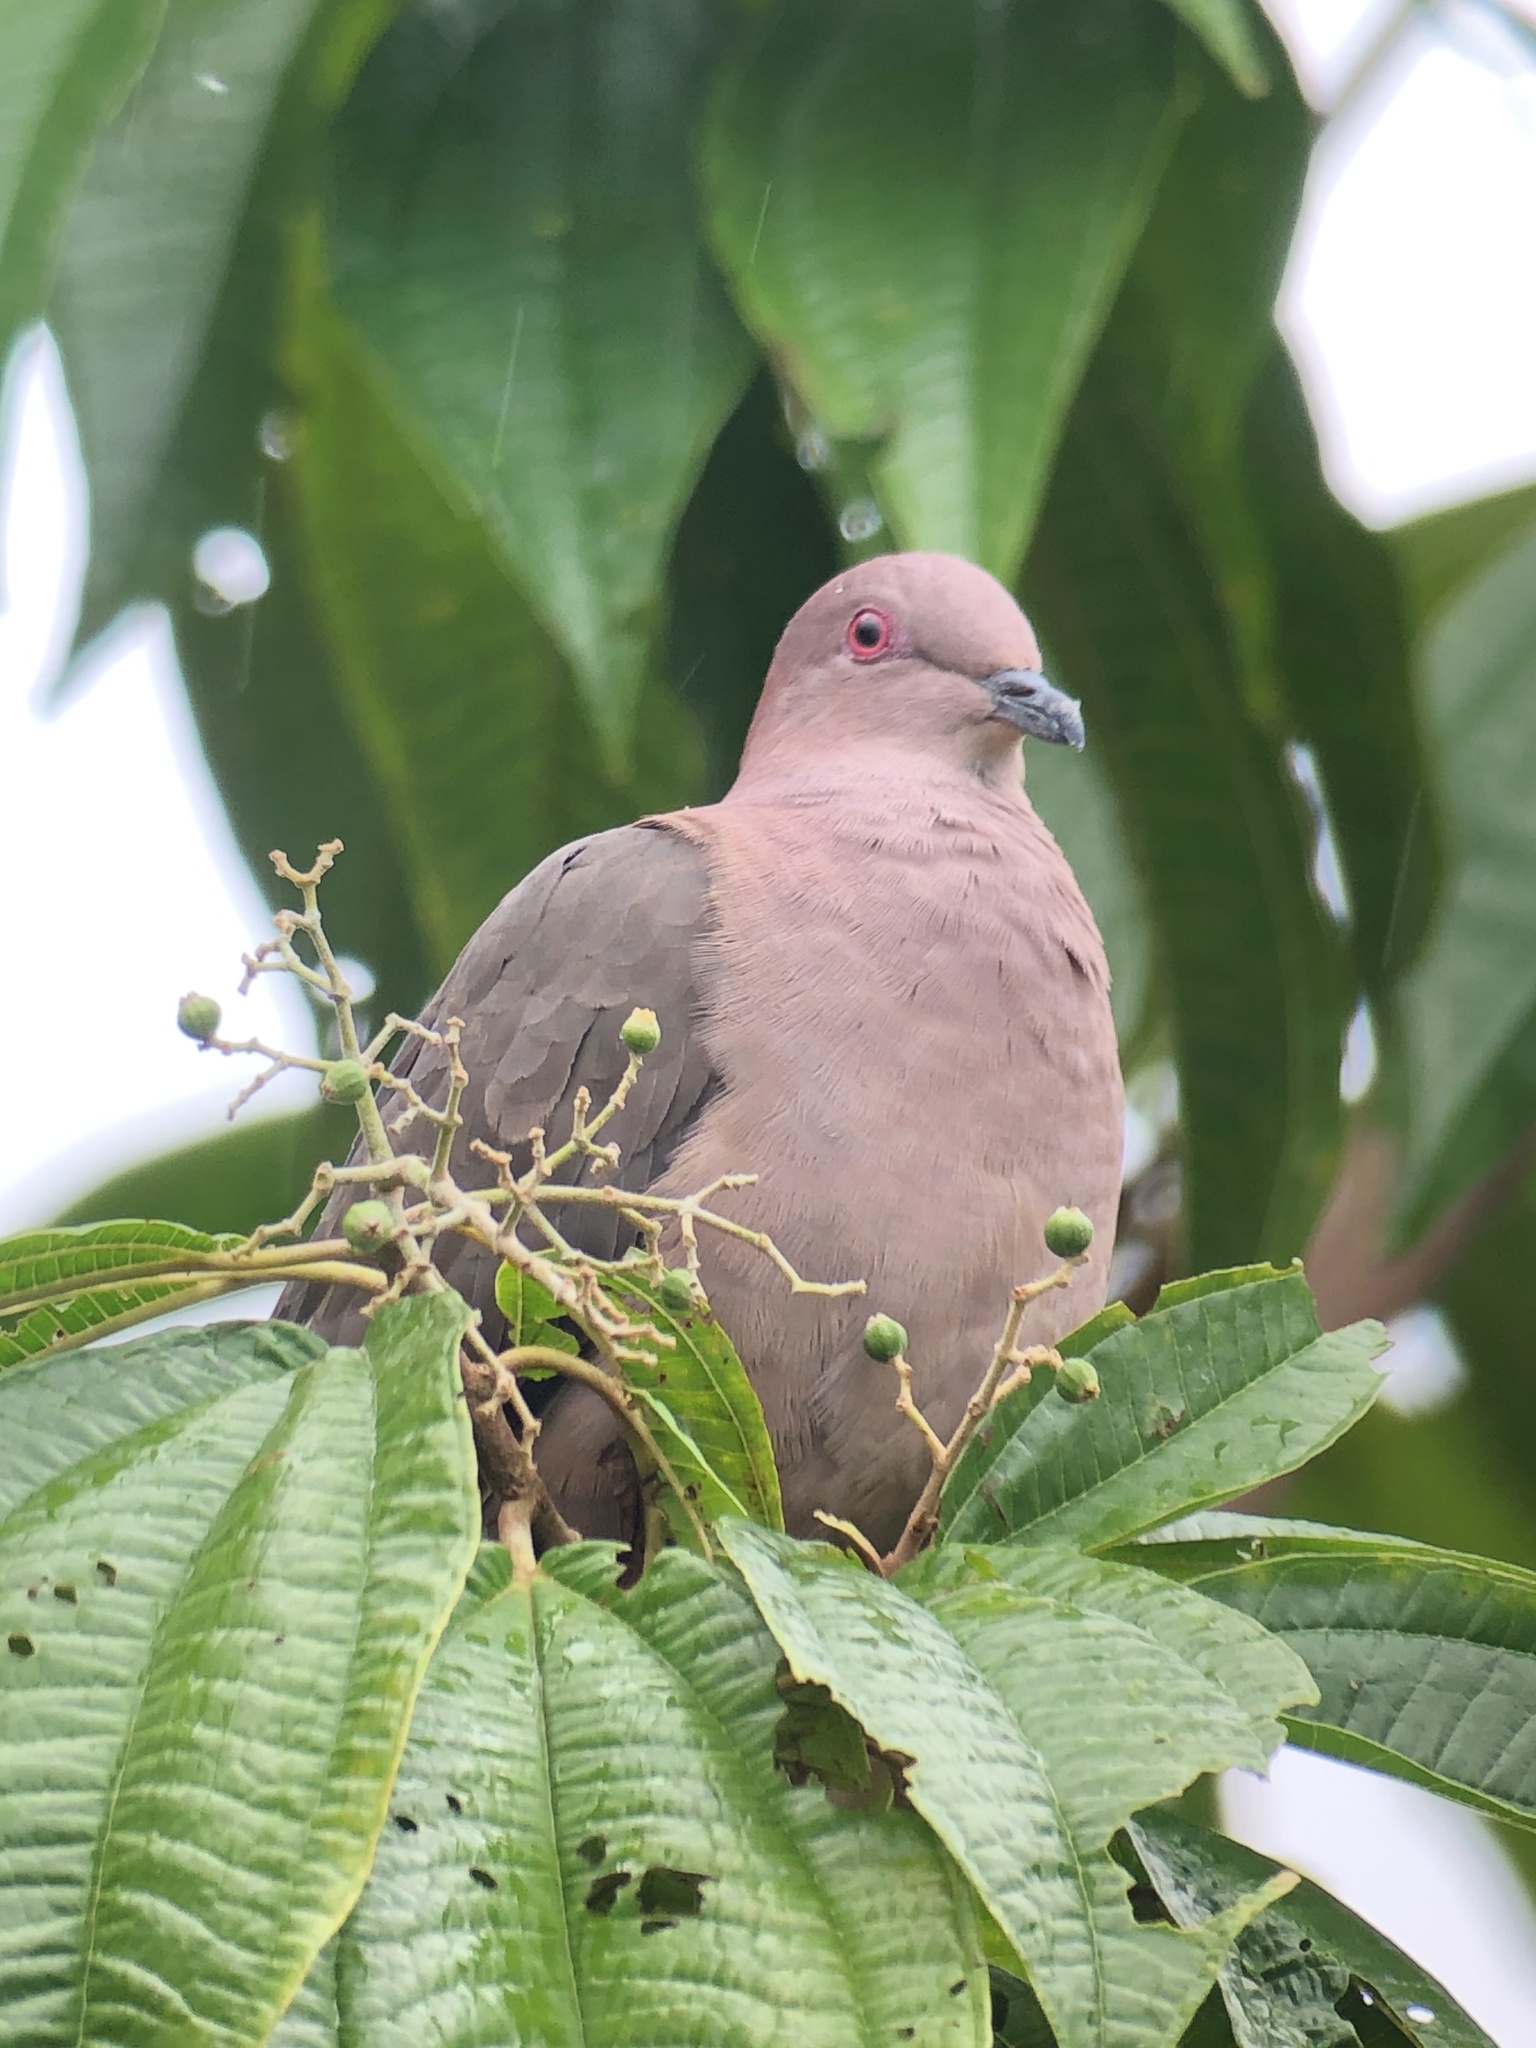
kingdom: Animalia
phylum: Chordata
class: Aves
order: Columbiformes
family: Columbidae
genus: Patagioenas
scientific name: Patagioenas nigrirostris
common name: Short-billed pigeon
